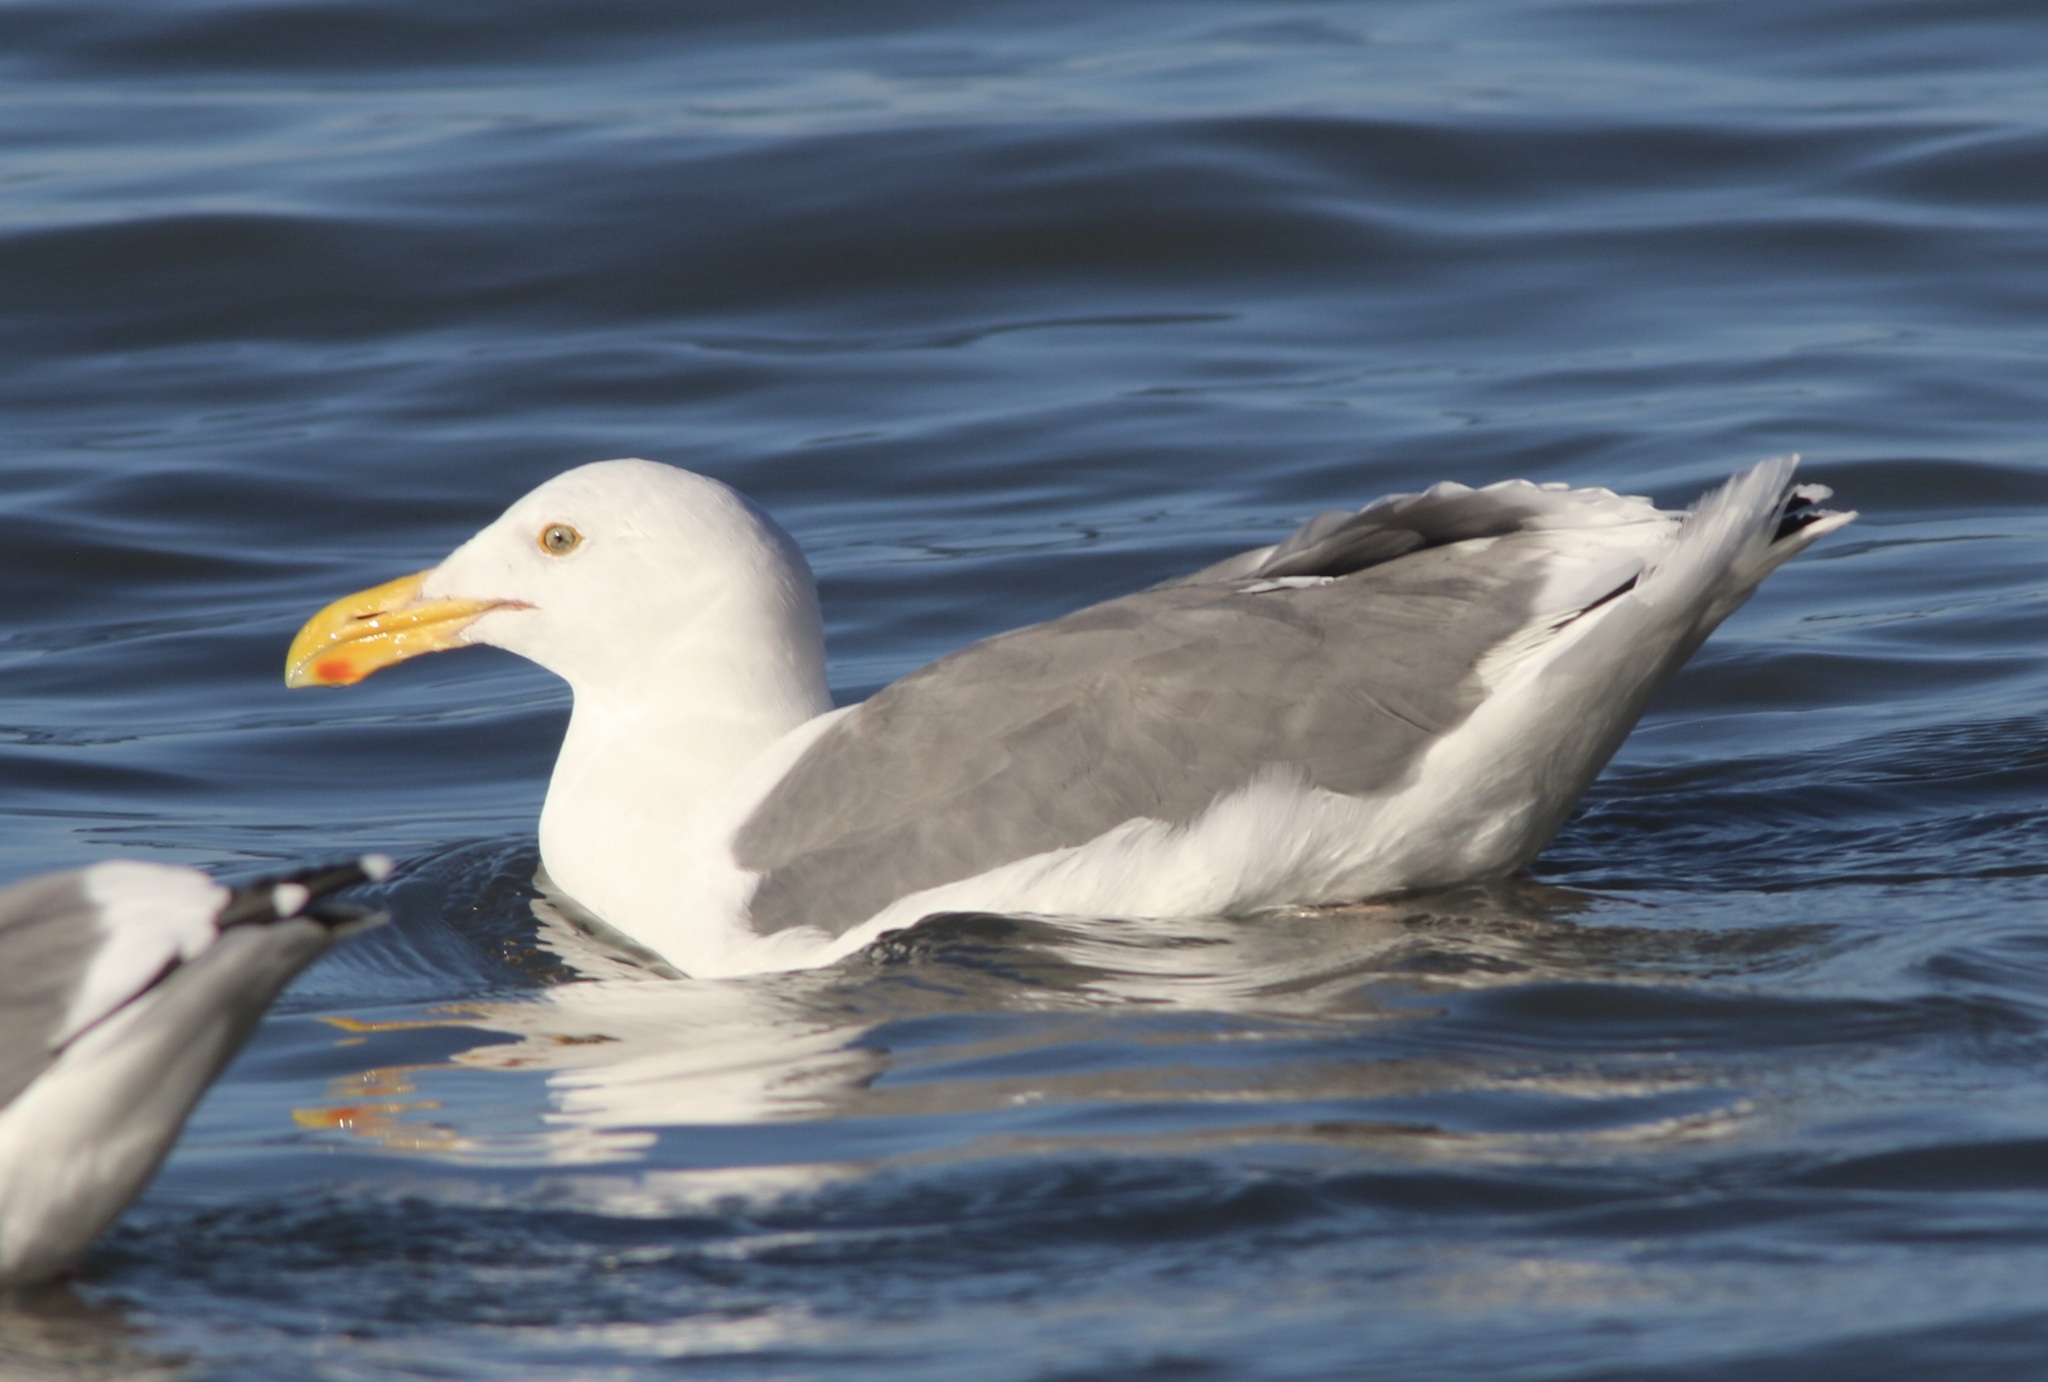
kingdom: Animalia
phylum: Chordata
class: Aves
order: Charadriiformes
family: Laridae
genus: Larus
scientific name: Larus occidentalis
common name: Western gull
